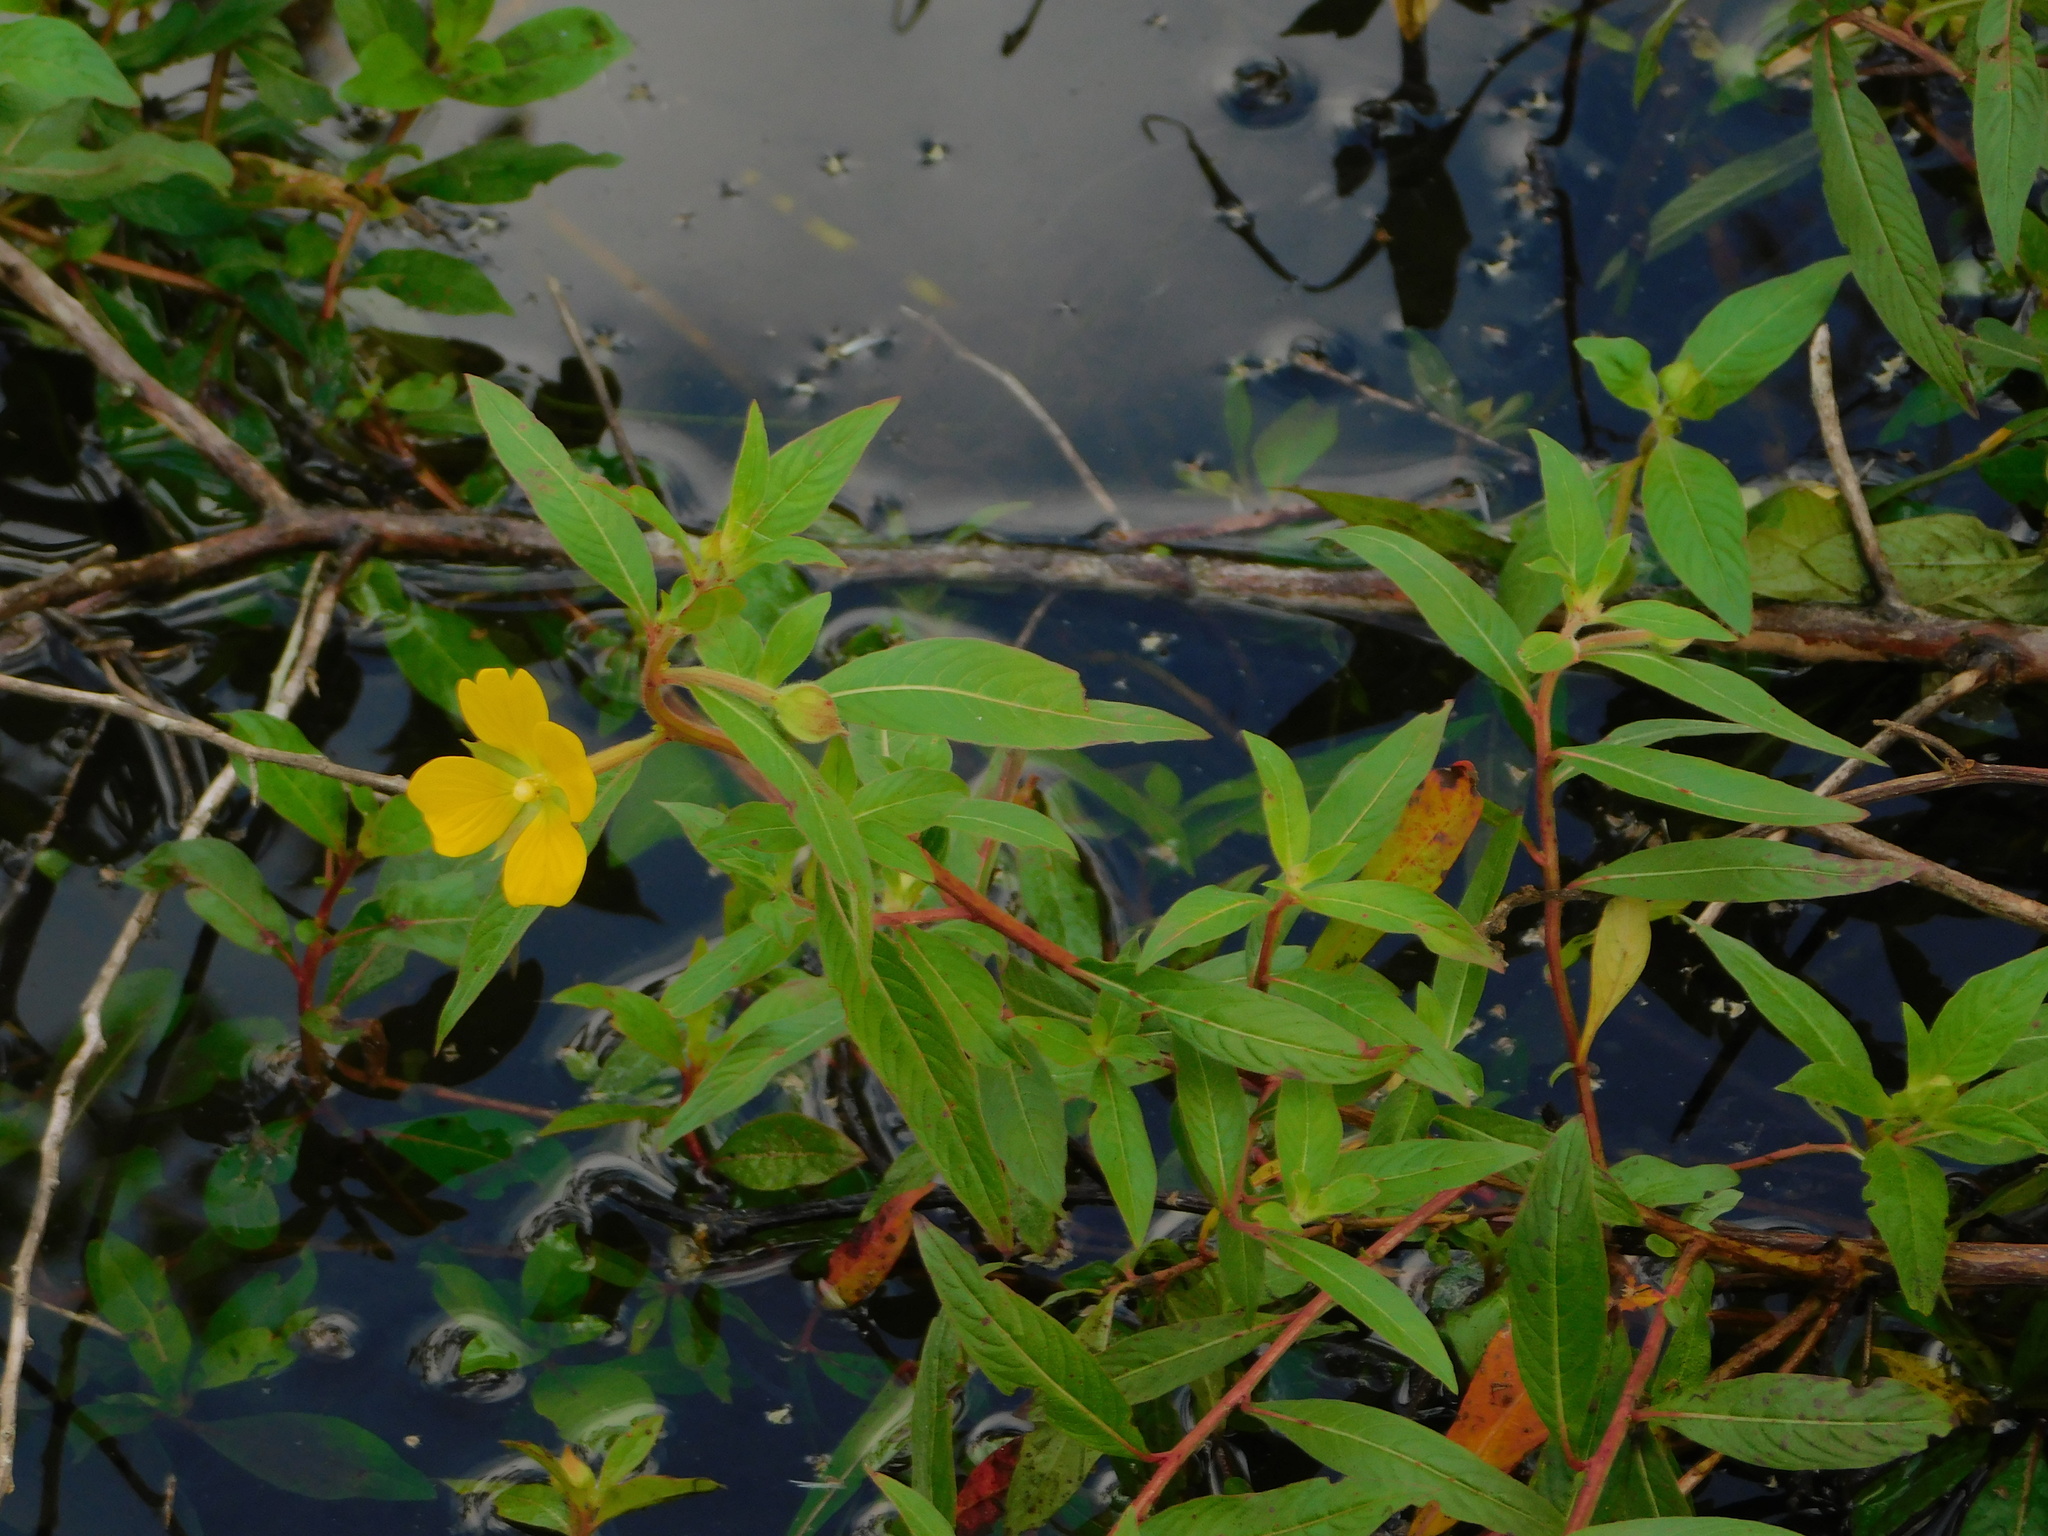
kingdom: Plantae
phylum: Tracheophyta
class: Magnoliopsida
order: Myrtales
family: Onagraceae
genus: Ludwigia
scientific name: Ludwigia octovalvis
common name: Water-primrose
